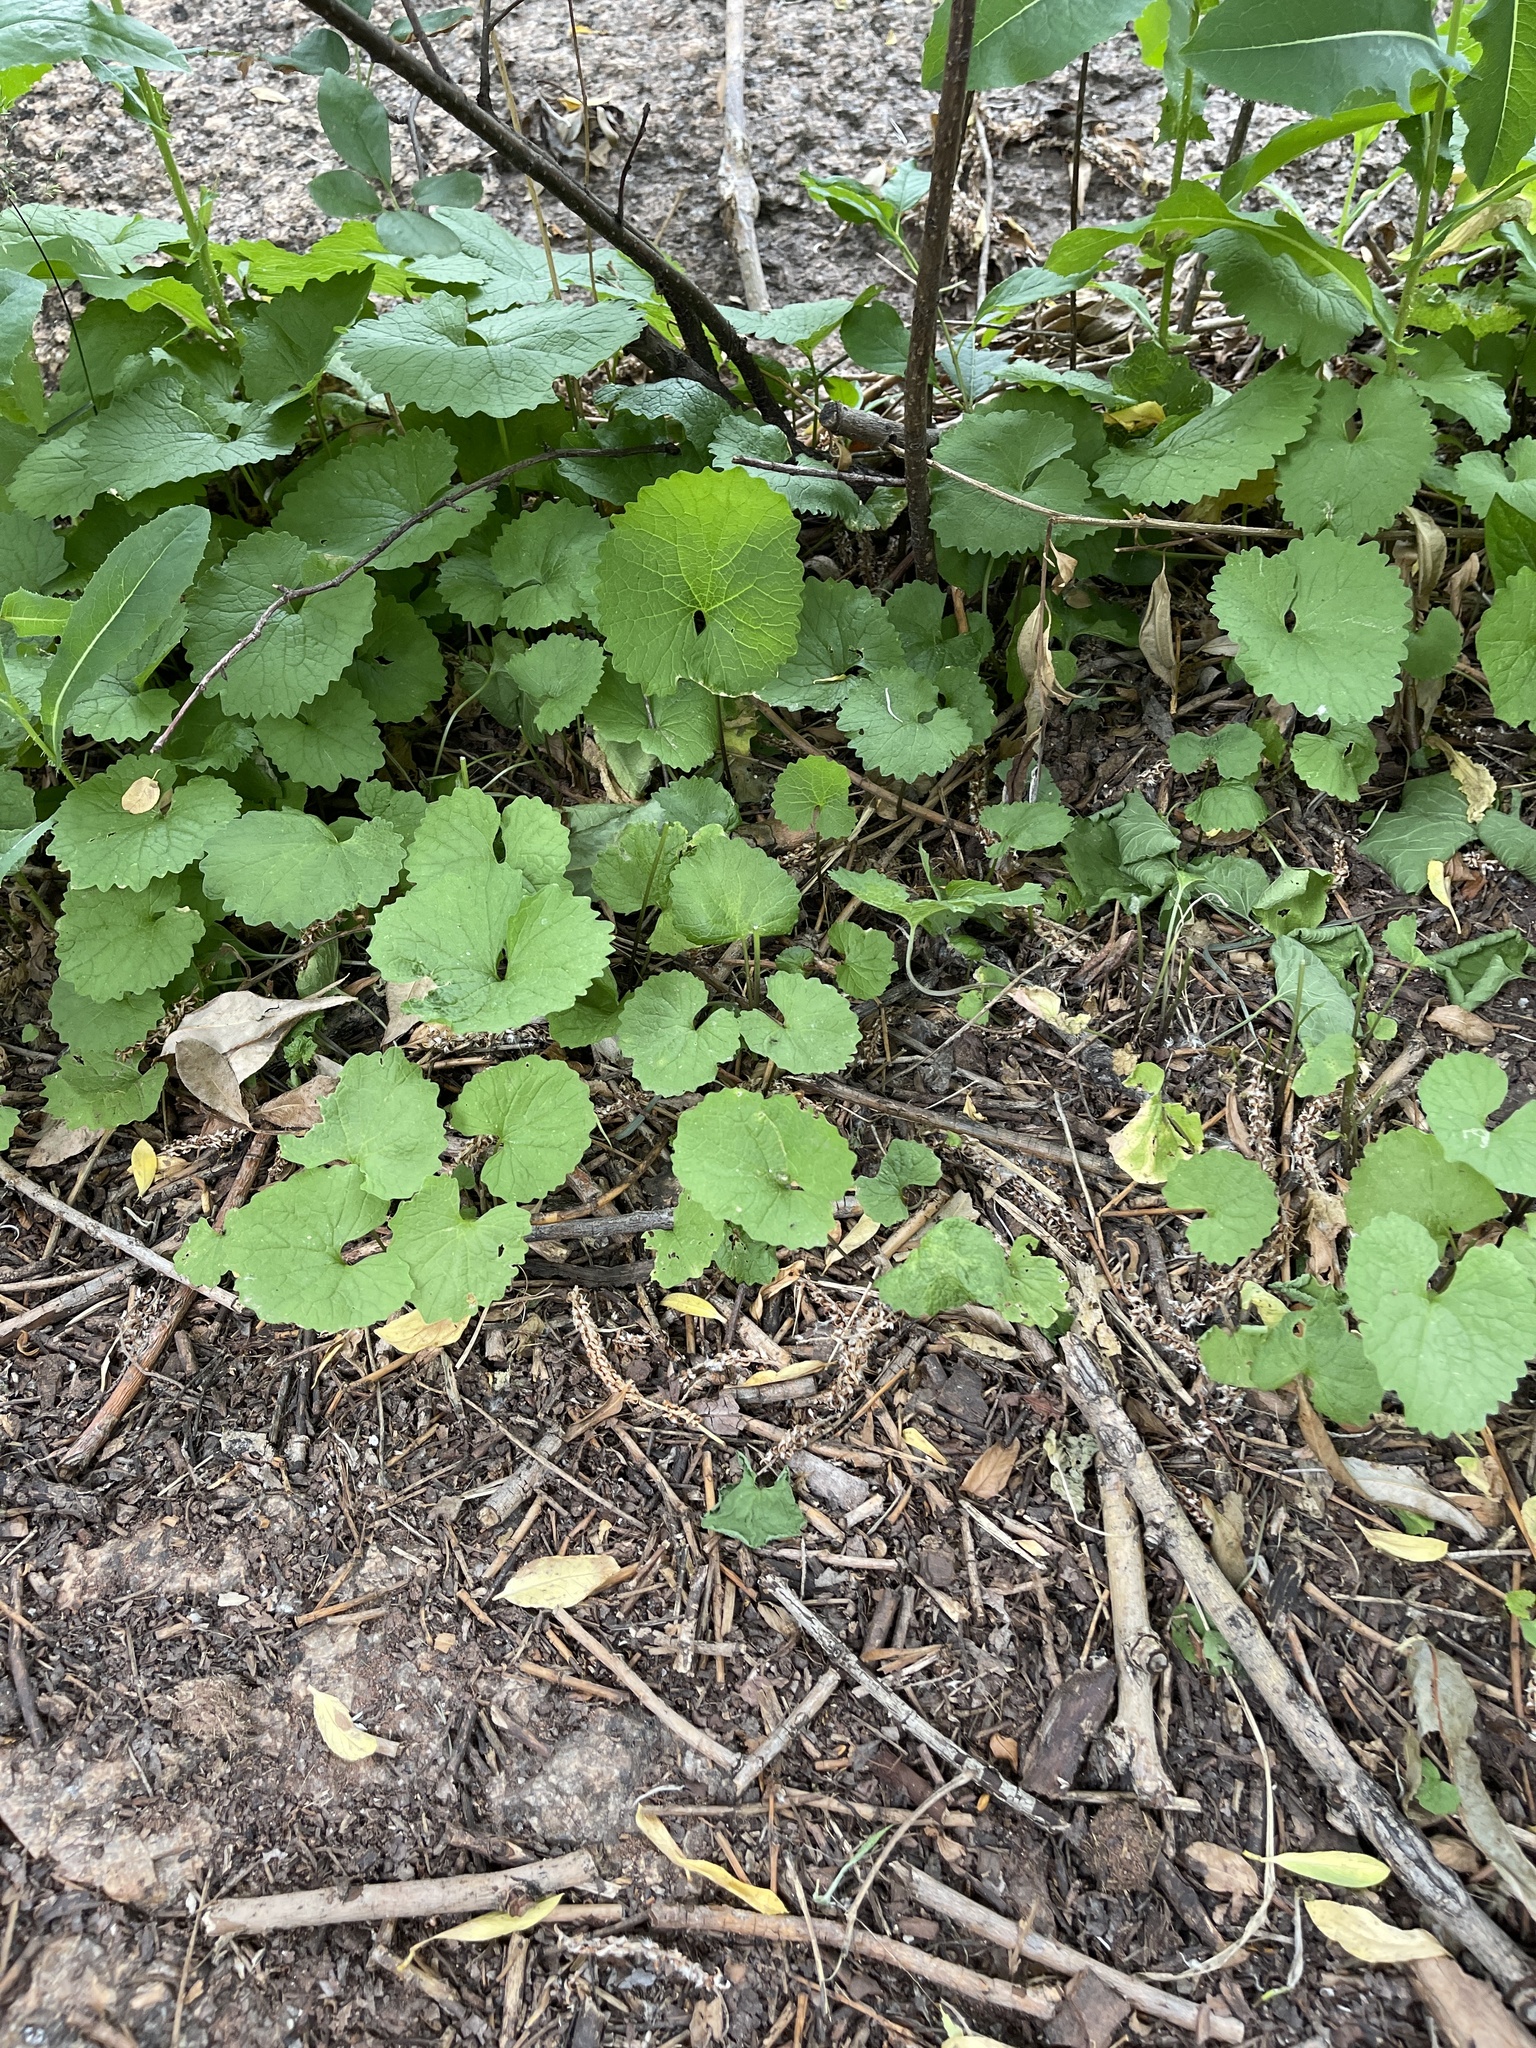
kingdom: Plantae
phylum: Tracheophyta
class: Magnoliopsida
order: Brassicales
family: Brassicaceae
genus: Alliaria
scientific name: Alliaria petiolata
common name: Garlic mustard
